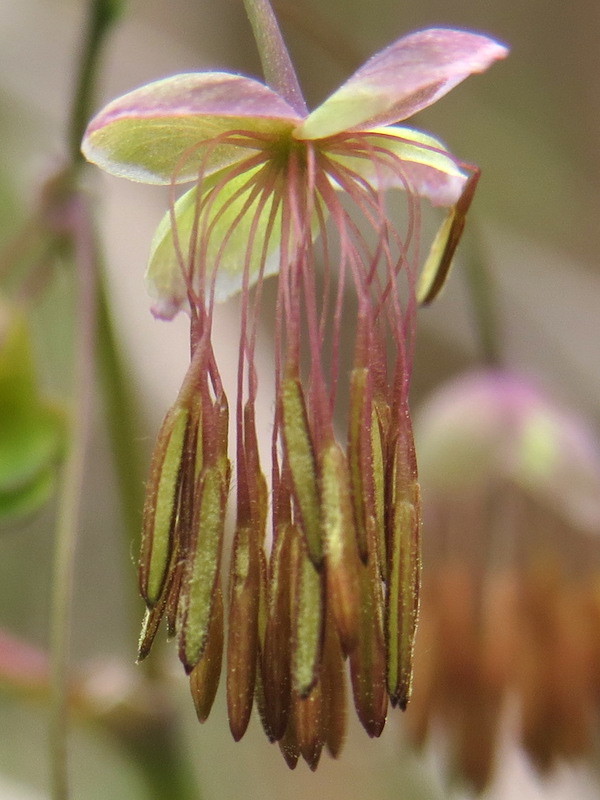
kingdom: Plantae
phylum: Tracheophyta
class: Magnoliopsida
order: Ranunculales
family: Ranunculaceae
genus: Thalictrum
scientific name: Thalictrum dioicum
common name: Early meadow-rue
